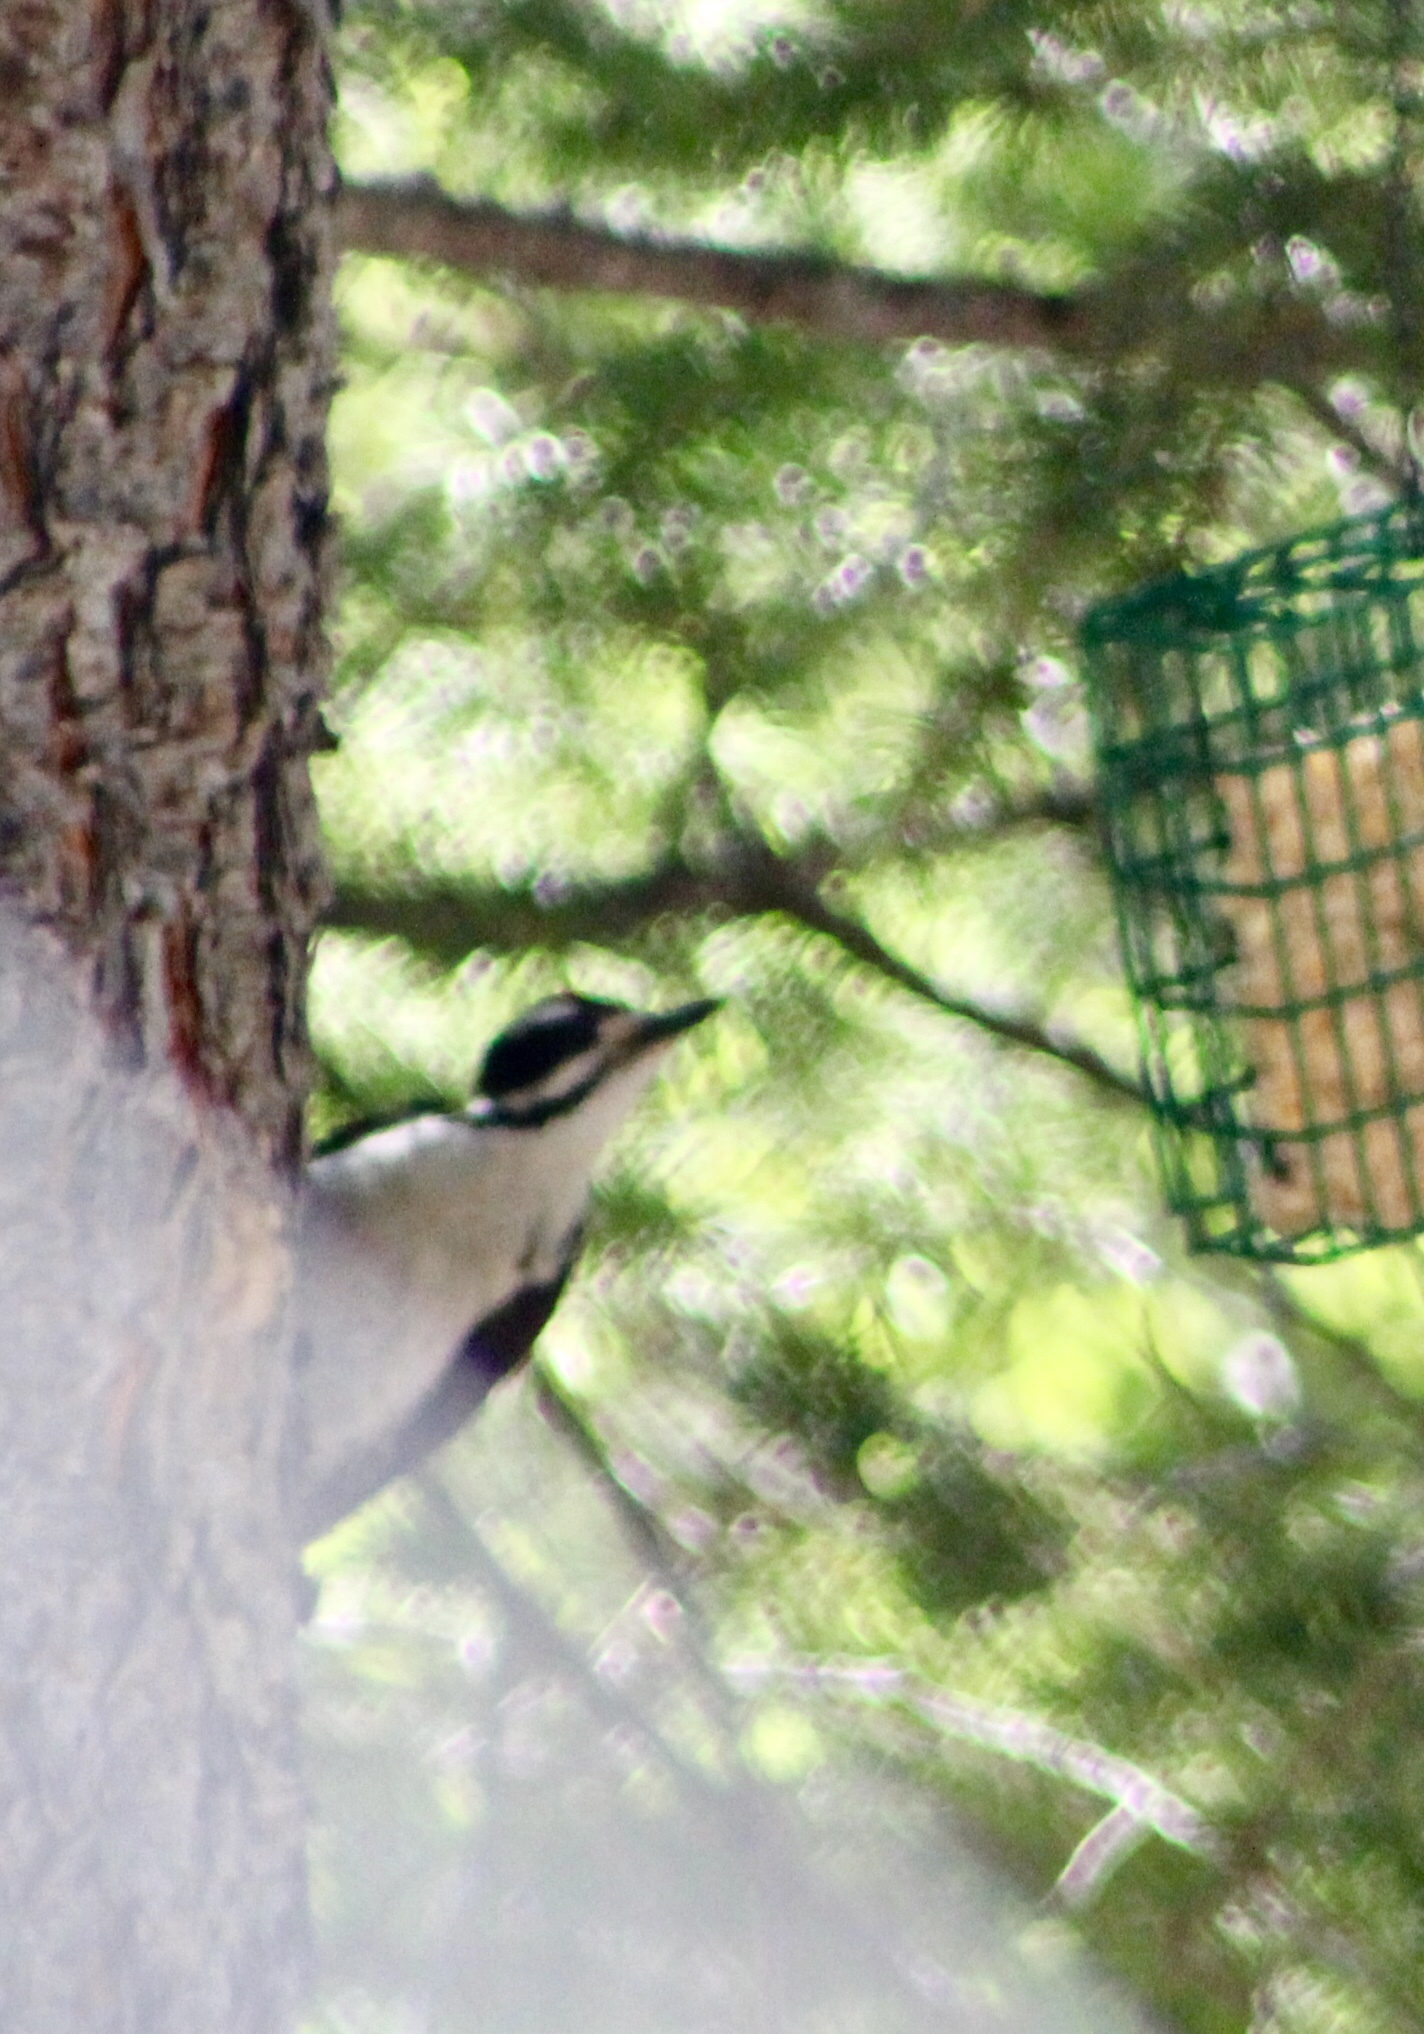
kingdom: Animalia
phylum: Chordata
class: Aves
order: Piciformes
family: Picidae
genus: Leuconotopicus
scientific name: Leuconotopicus villosus
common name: Hairy woodpecker
